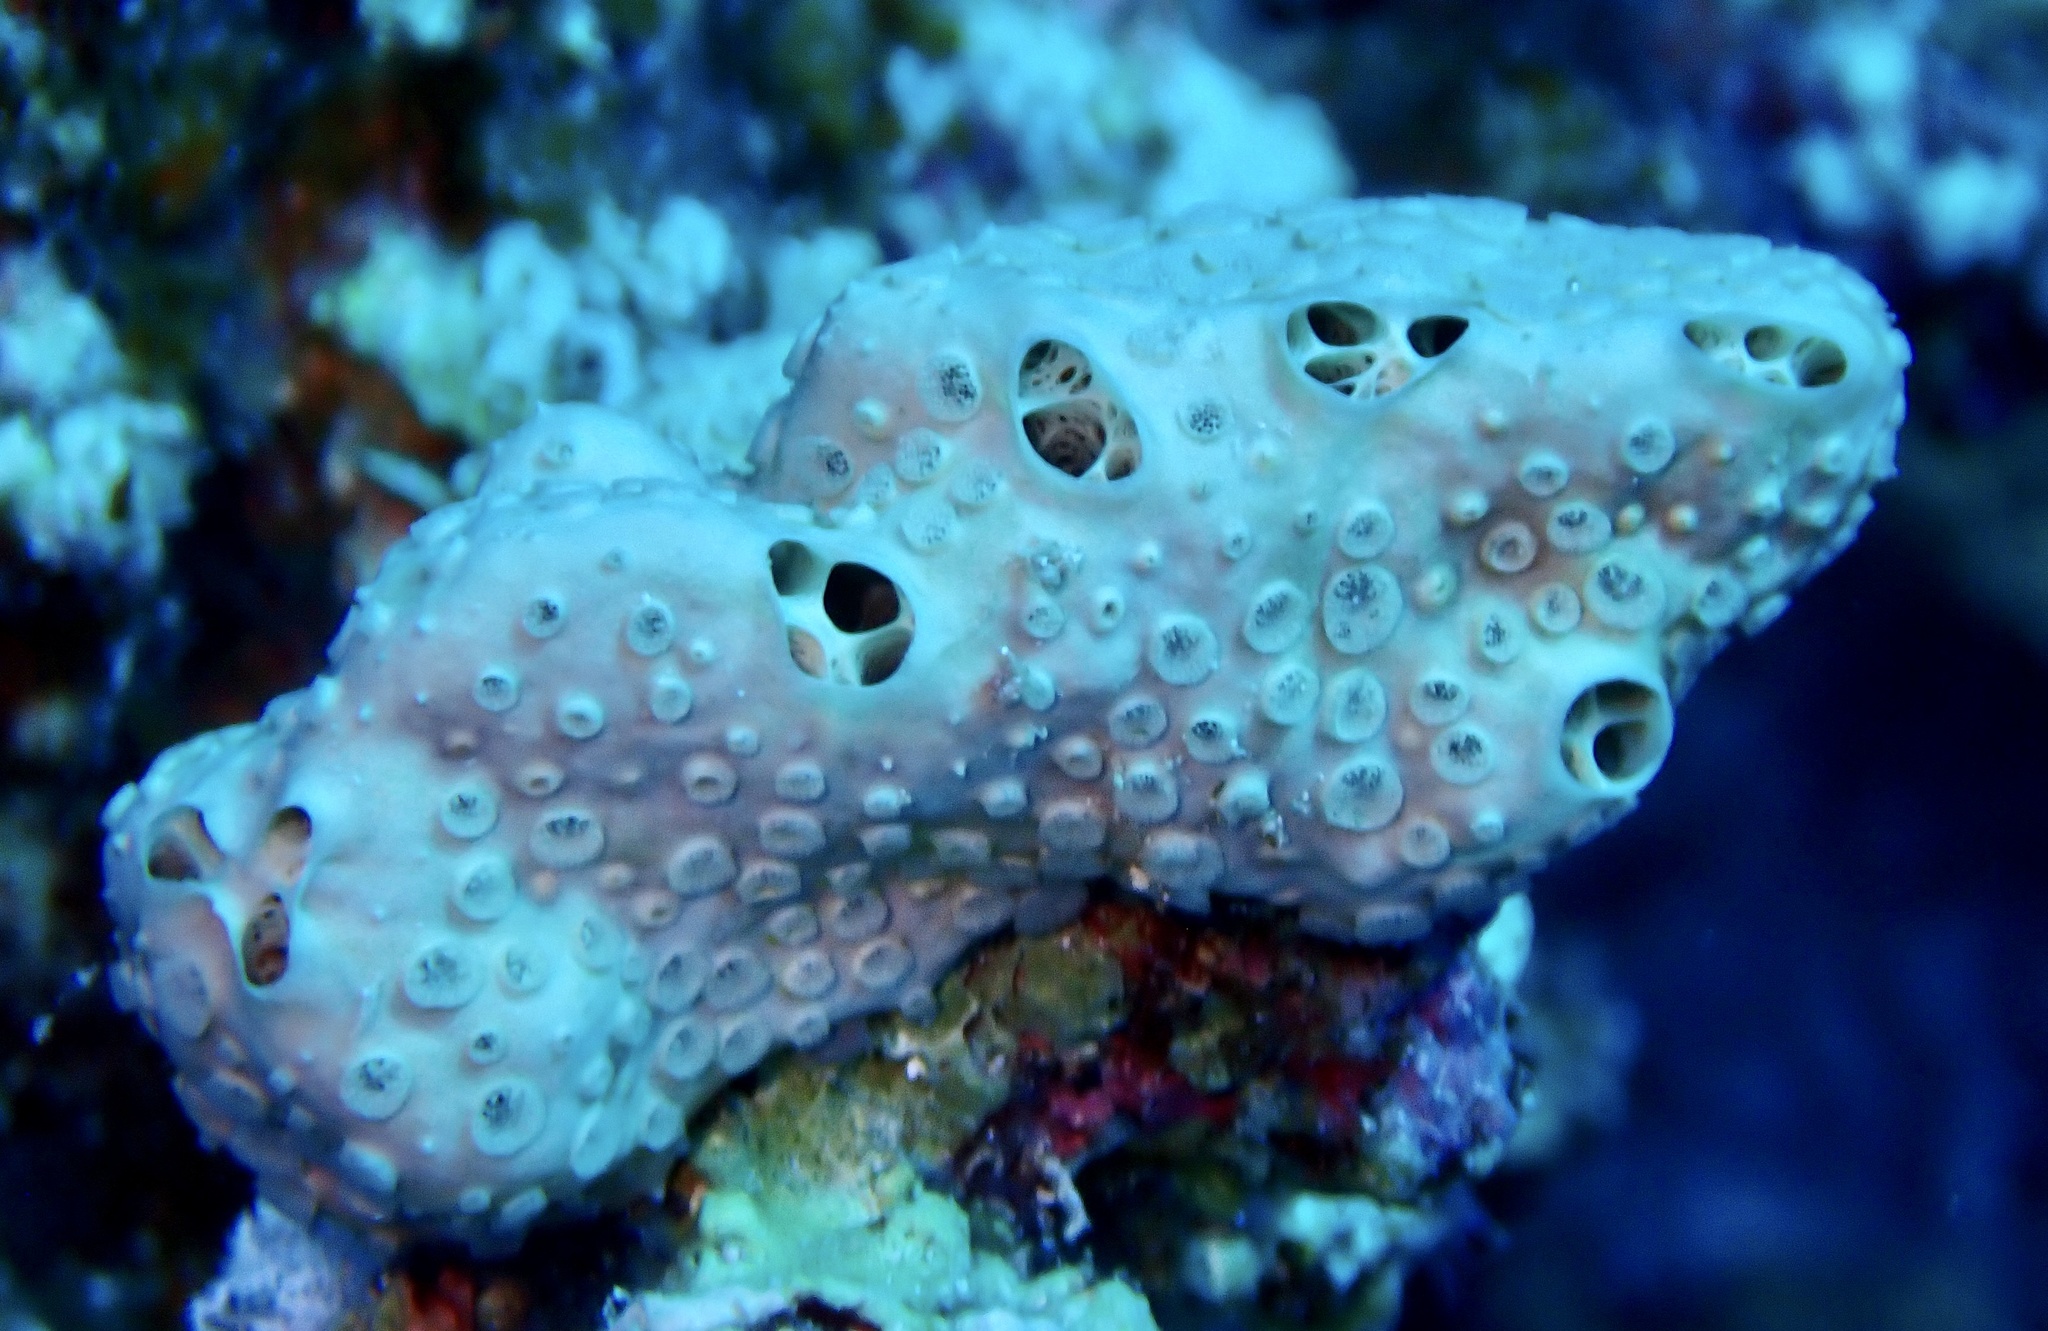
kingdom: Animalia
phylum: Porifera
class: Demospongiae
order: Poecilosclerida
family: Crellidae
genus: Crella
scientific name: Crella cyathophora
